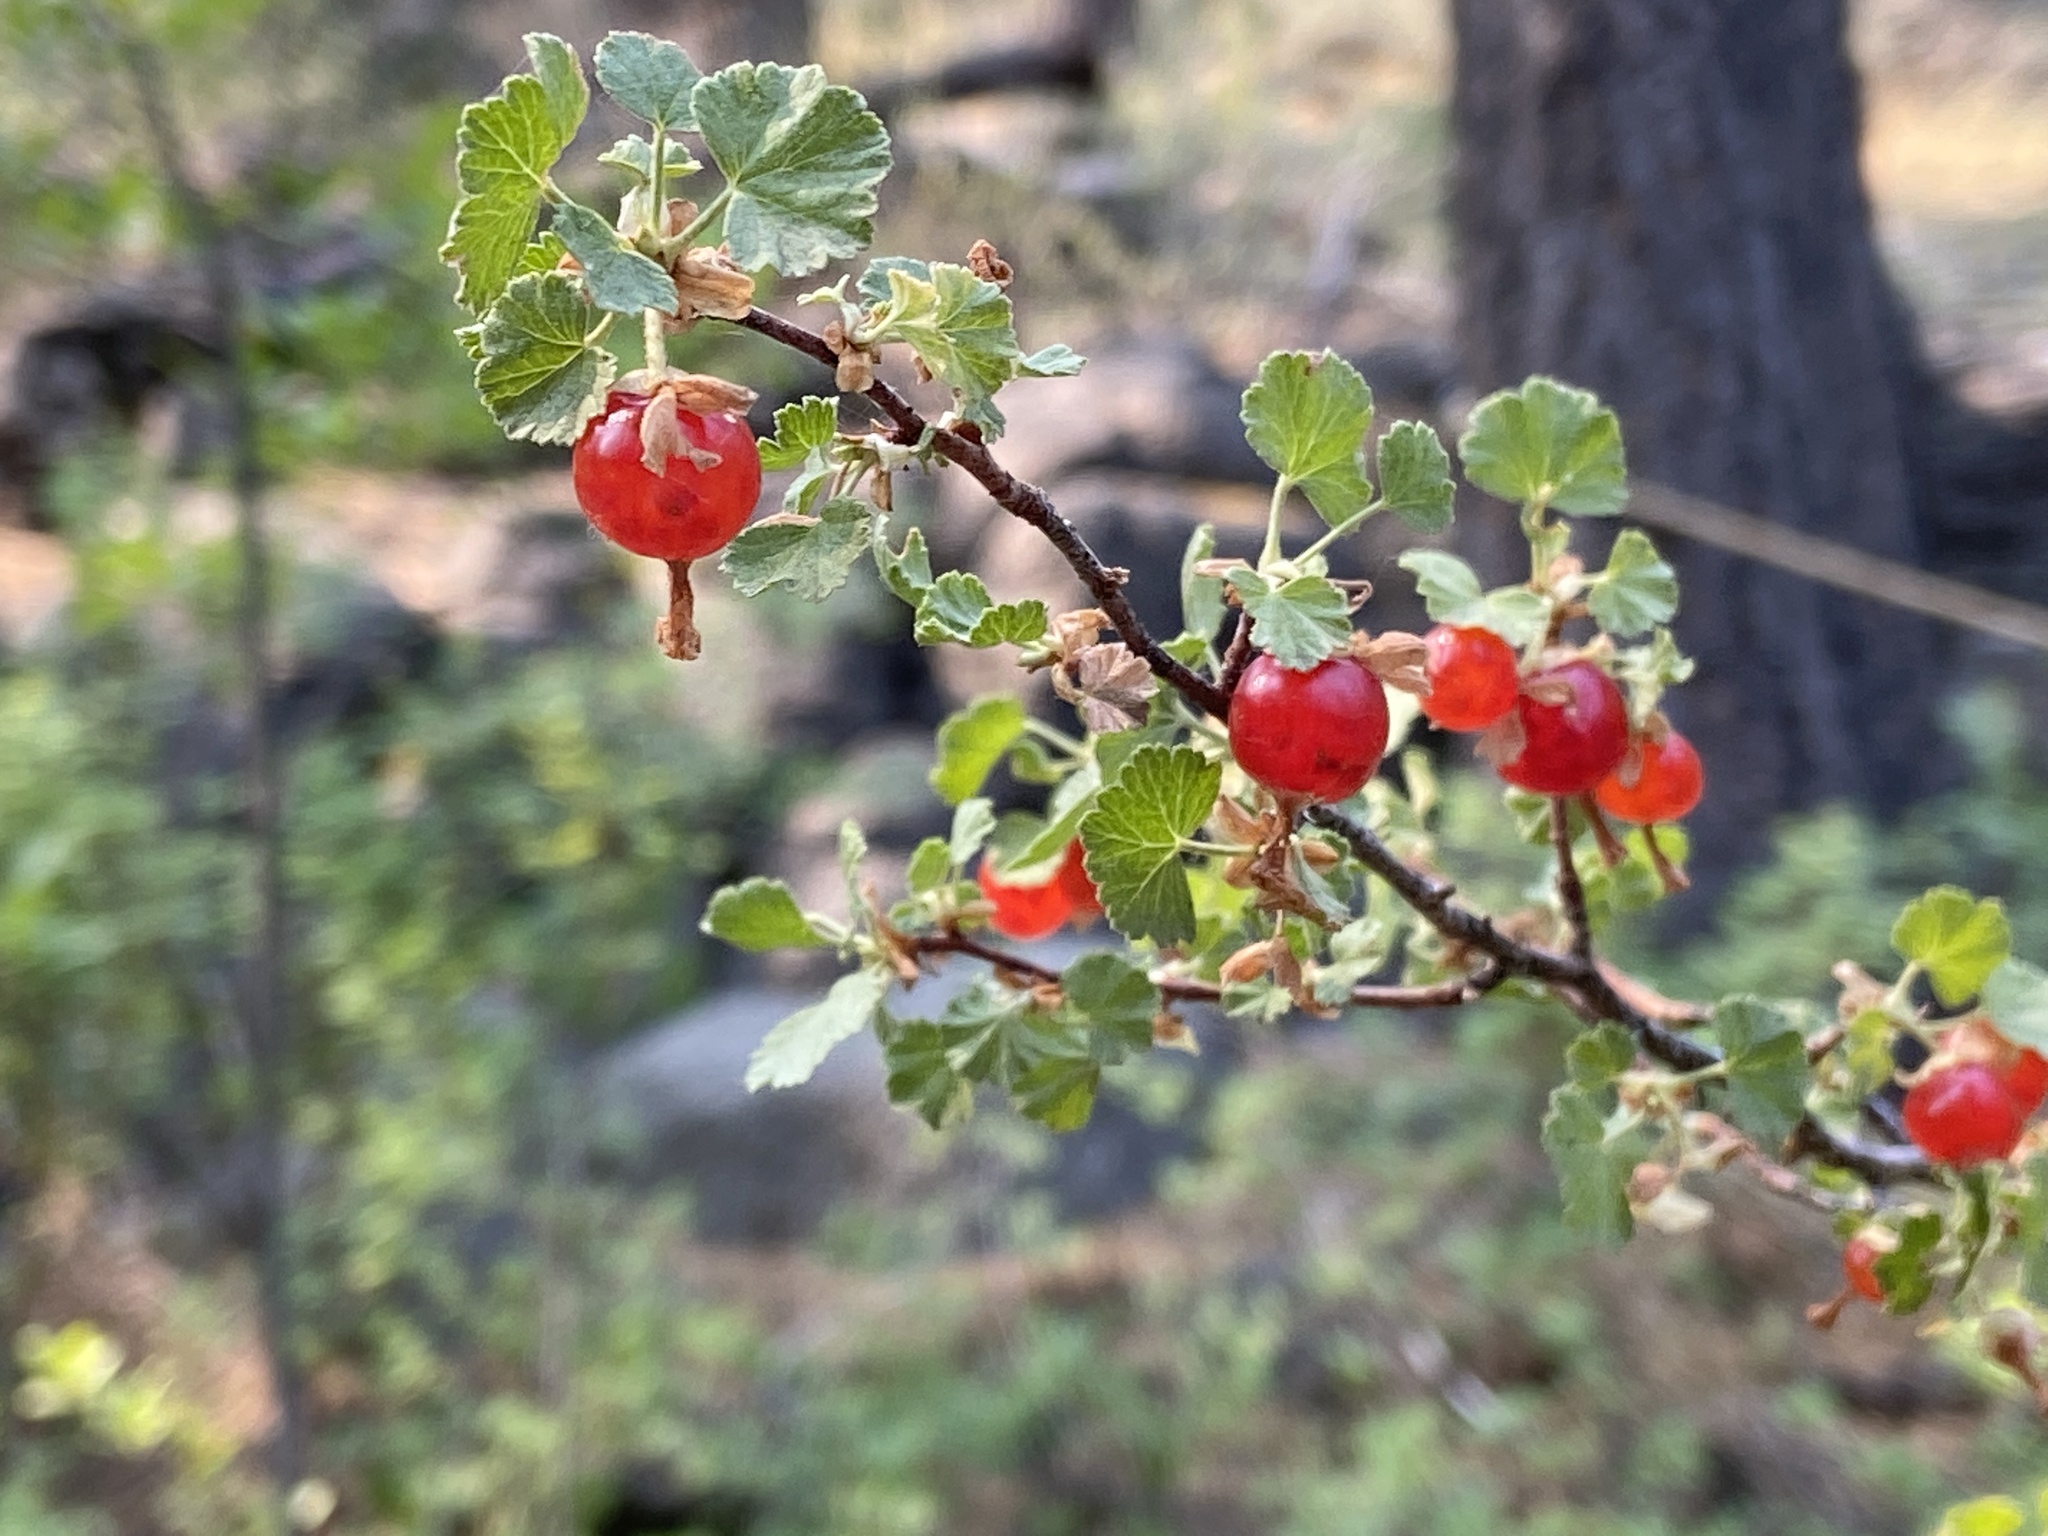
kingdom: Plantae
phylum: Tracheophyta
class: Magnoliopsida
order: Saxifragales
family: Grossulariaceae
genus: Ribes
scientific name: Ribes cereum
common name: Wax currant
